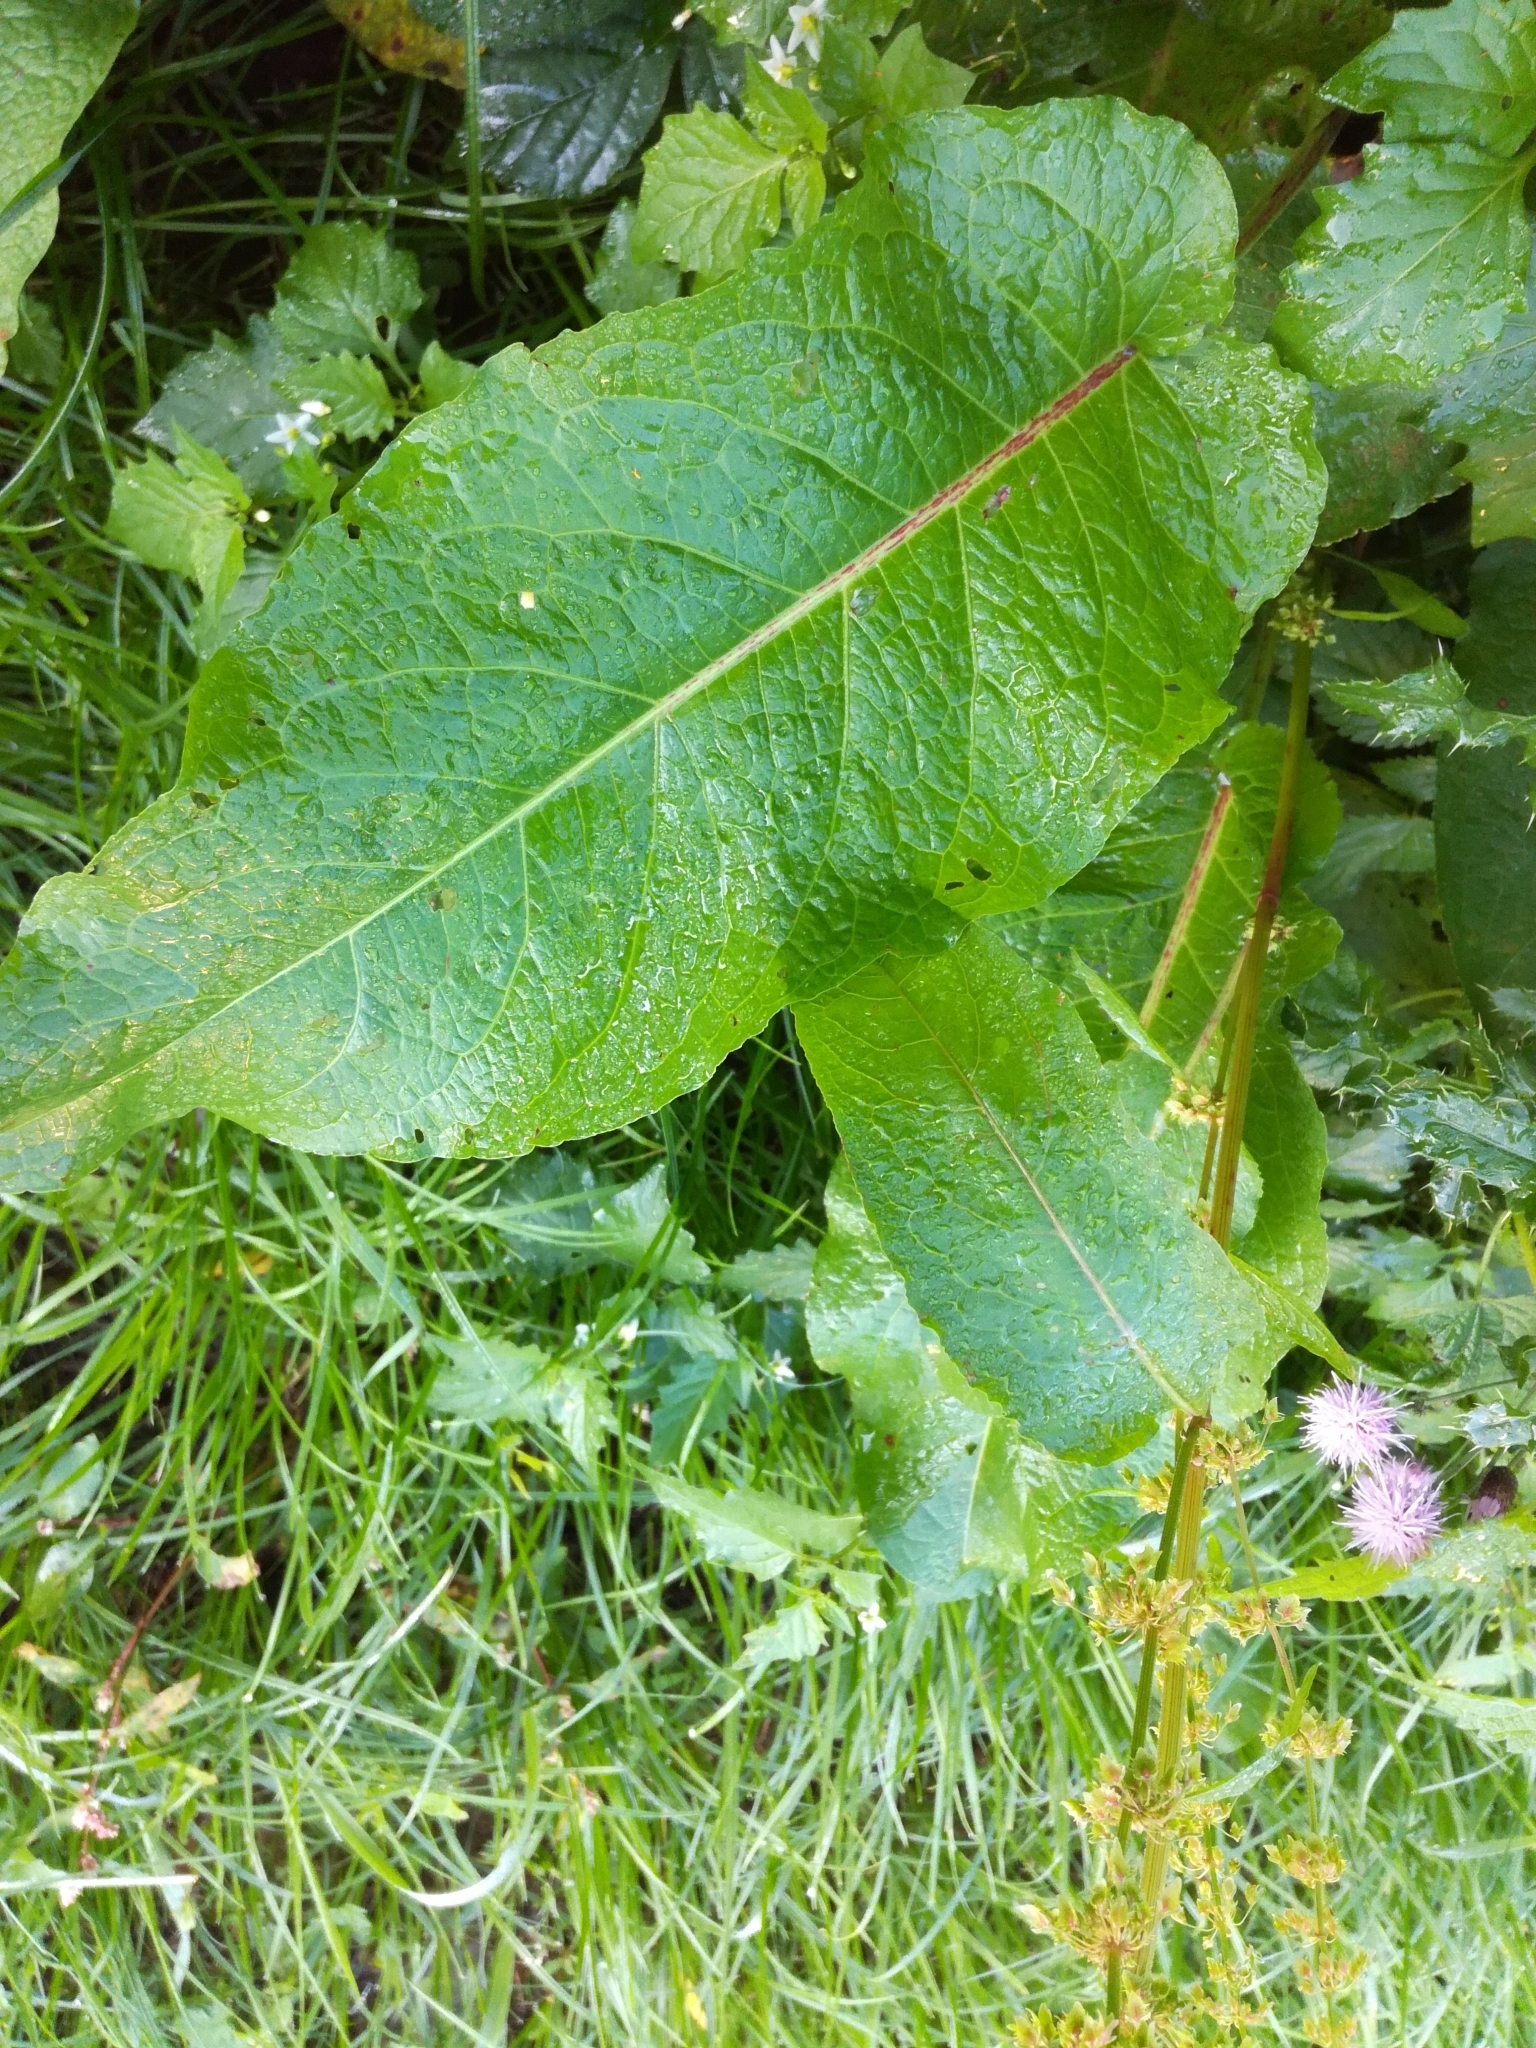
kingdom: Plantae
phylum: Tracheophyta
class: Magnoliopsida
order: Caryophyllales
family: Polygonaceae
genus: Rumex
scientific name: Rumex obtusifolius
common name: Bitter dock
